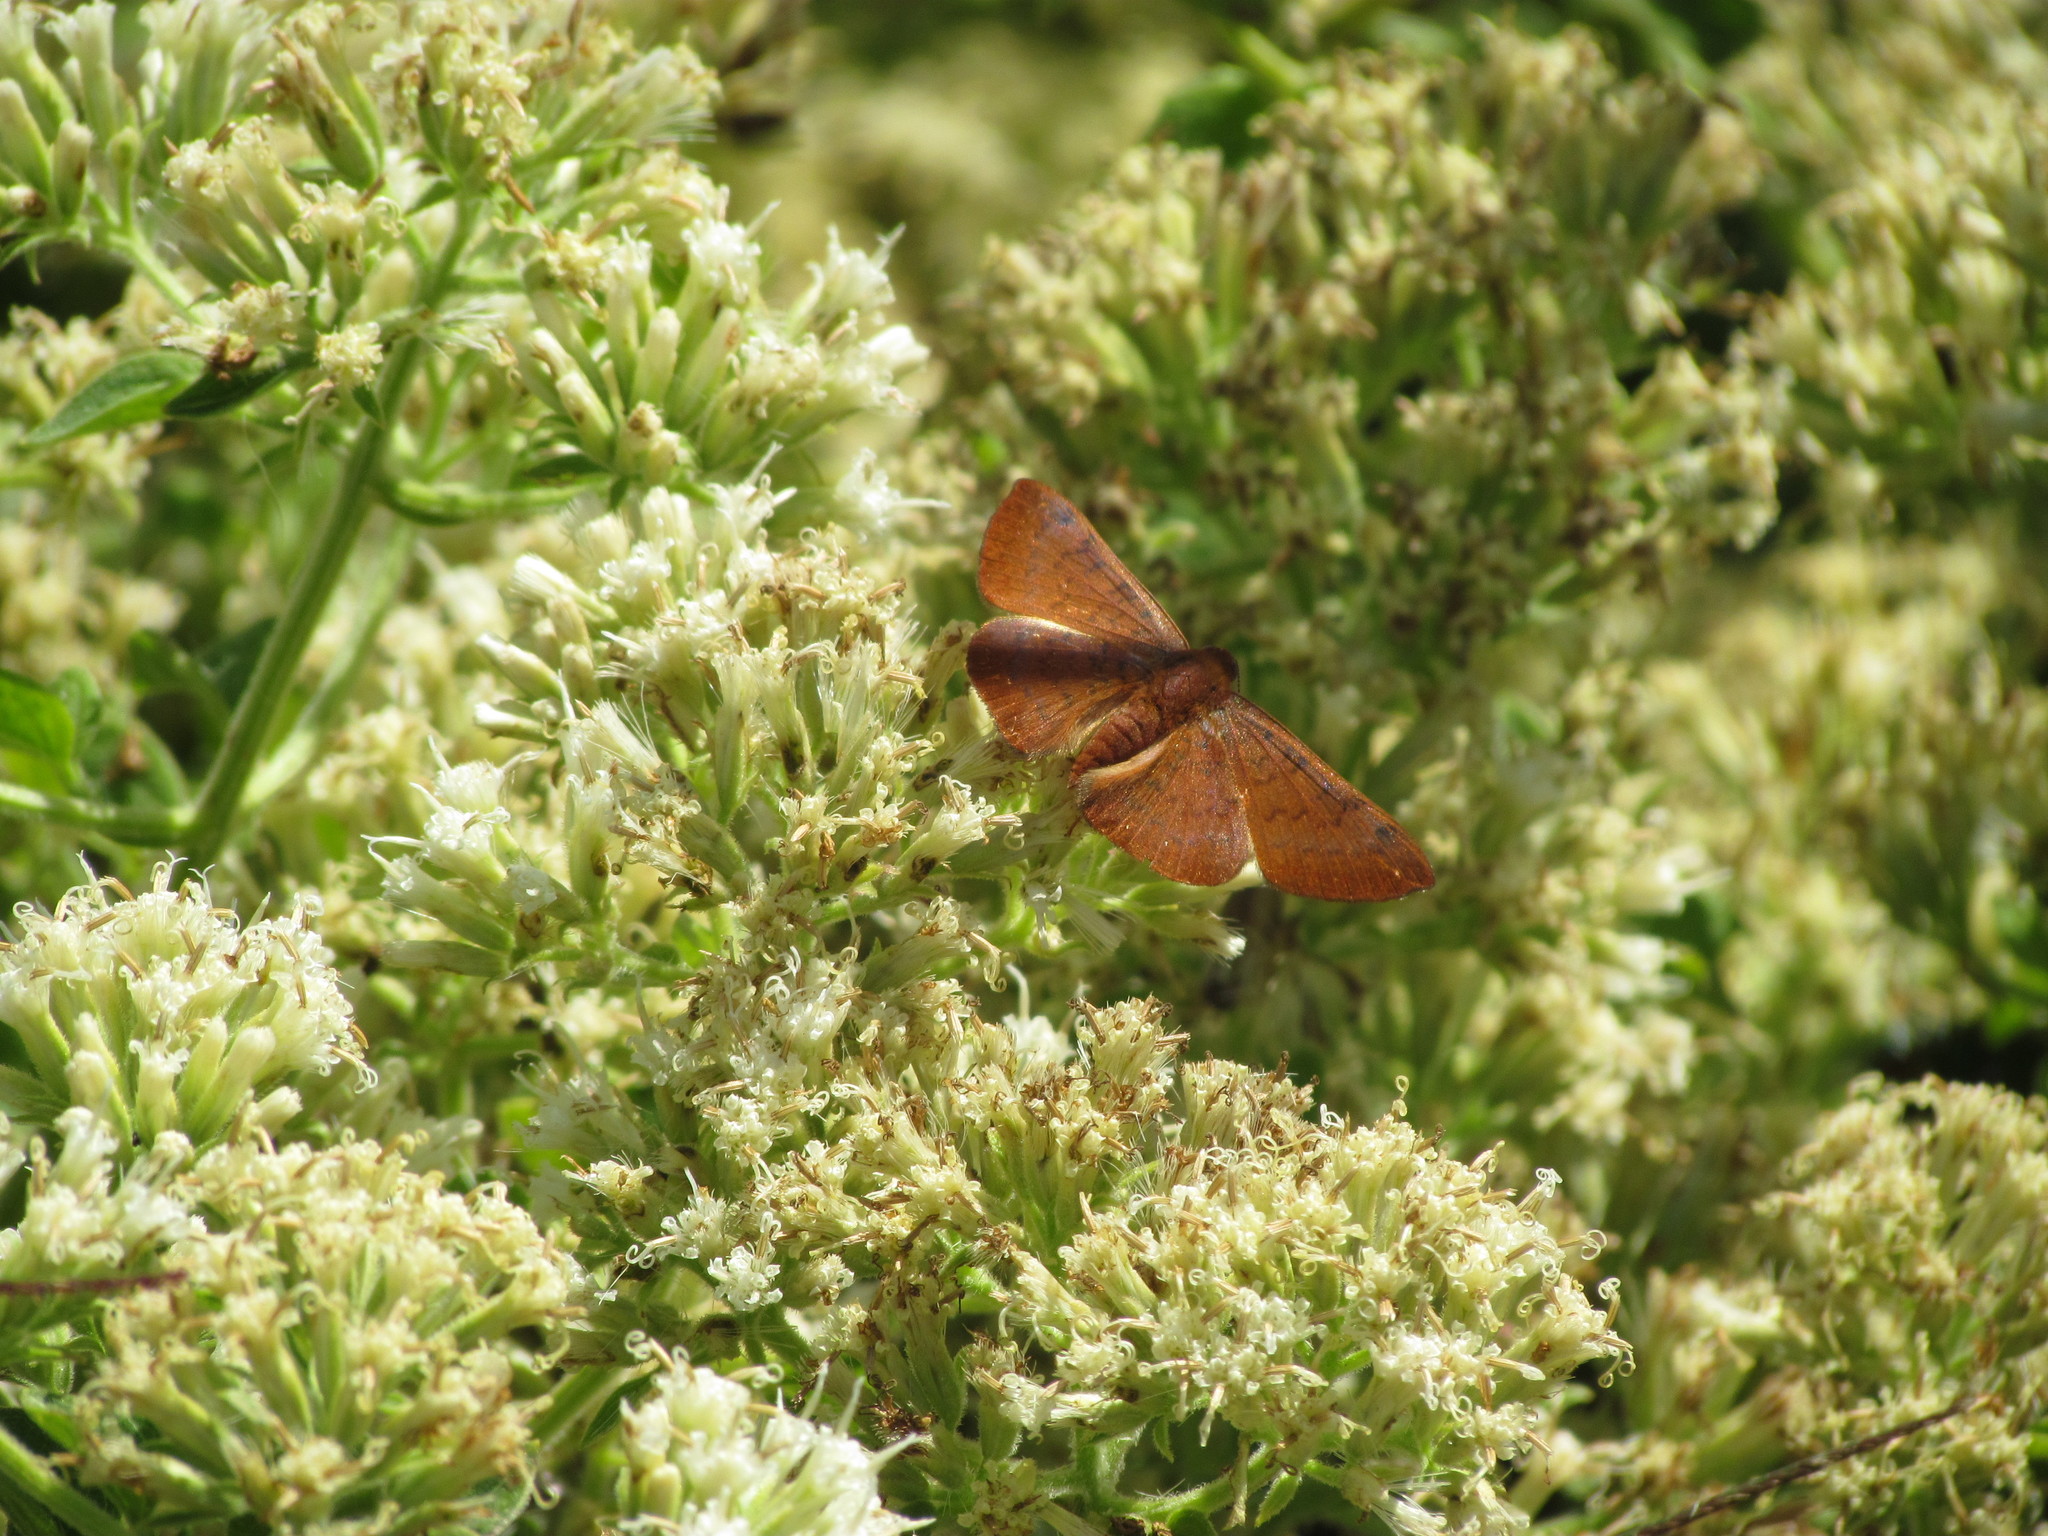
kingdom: Animalia
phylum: Arthropoda
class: Insecta
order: Lepidoptera
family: Lycaenidae
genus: Emesis
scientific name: Emesis russula
